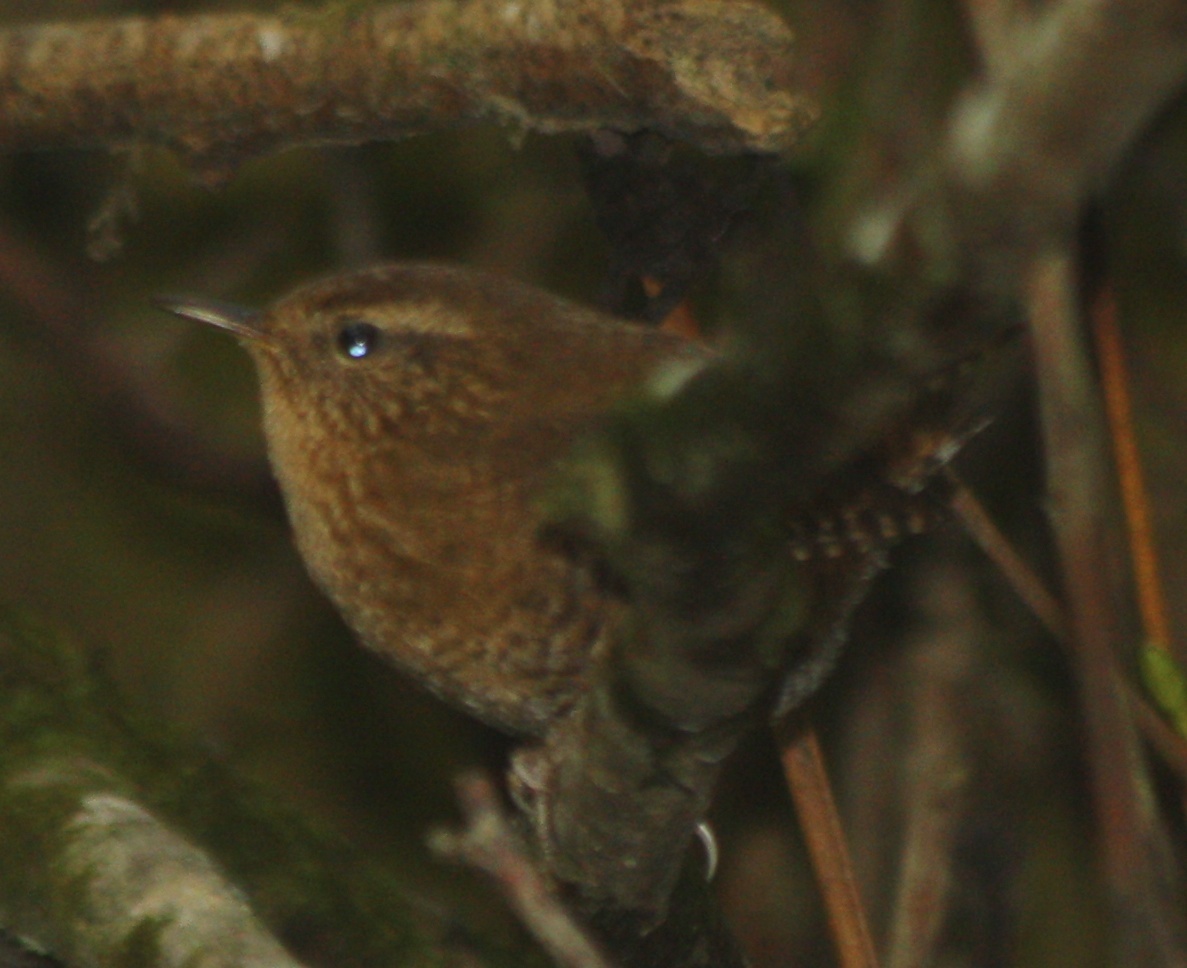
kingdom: Animalia
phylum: Chordata
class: Aves
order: Passeriformes
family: Troglodytidae
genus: Troglodytes
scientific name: Troglodytes pacificus
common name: Pacific wren
